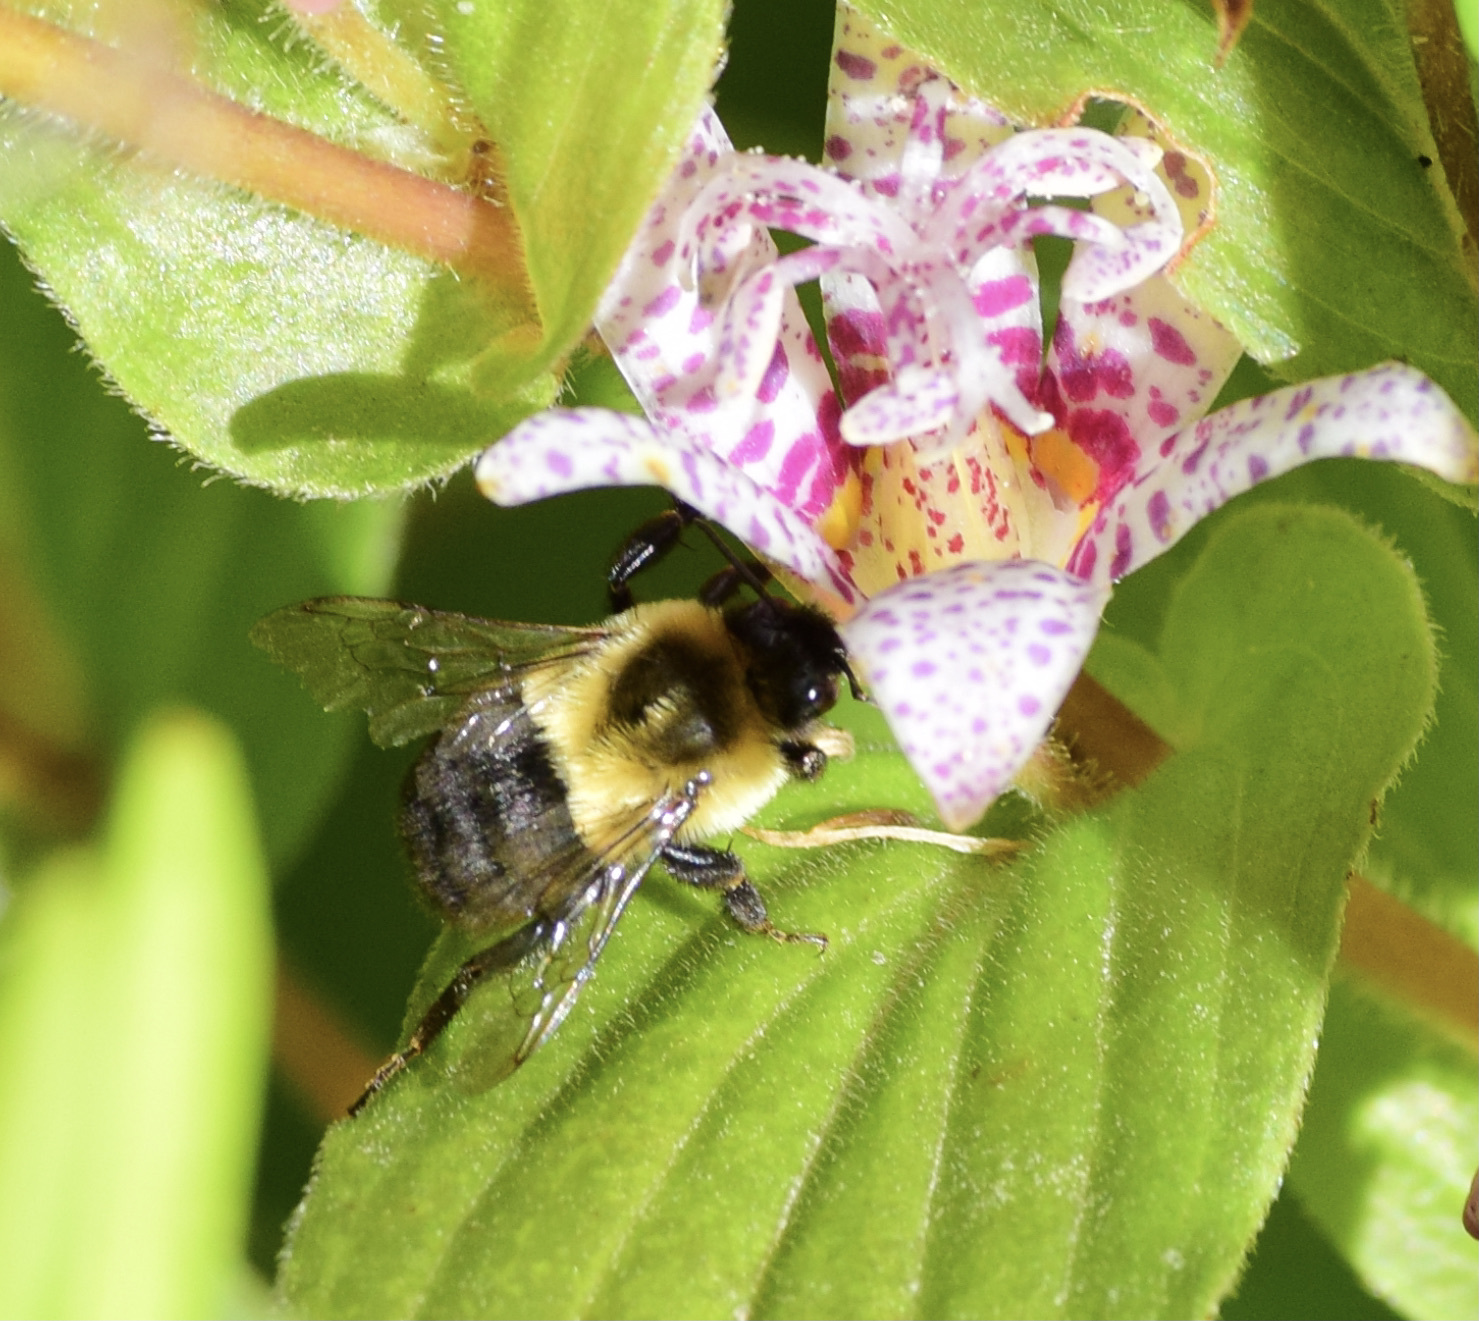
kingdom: Animalia
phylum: Arthropoda
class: Insecta
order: Hymenoptera
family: Apidae
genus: Bombus
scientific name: Bombus impatiens
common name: Common eastern bumble bee
